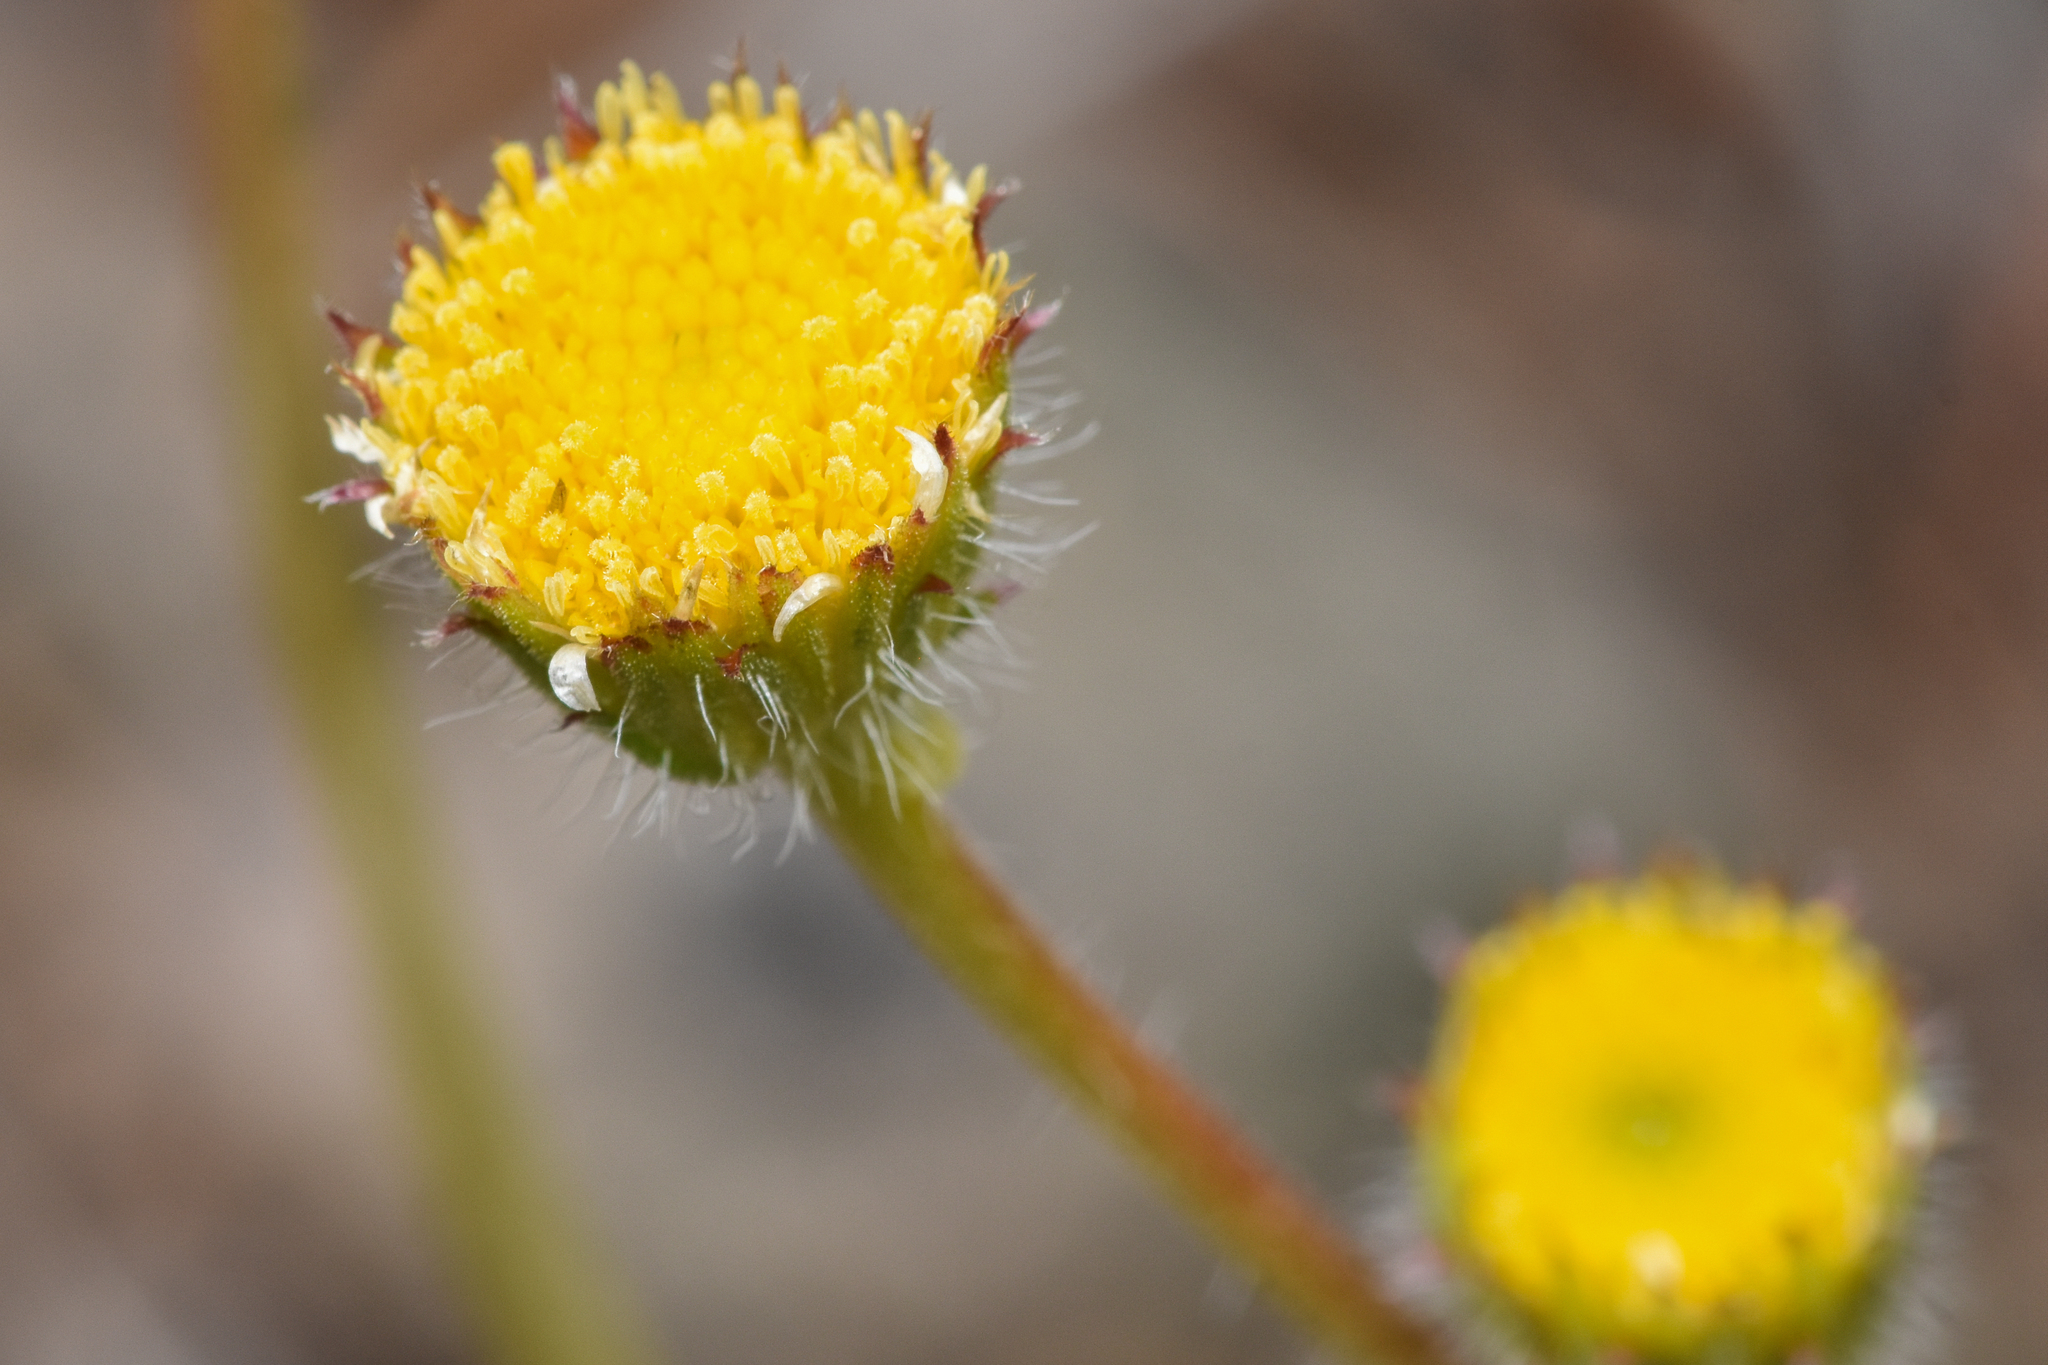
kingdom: Plantae
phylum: Tracheophyta
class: Magnoliopsida
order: Asterales
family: Asteraceae
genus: Erigeron
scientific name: Erigeron compositus
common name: Dwarf mountain fleabane
